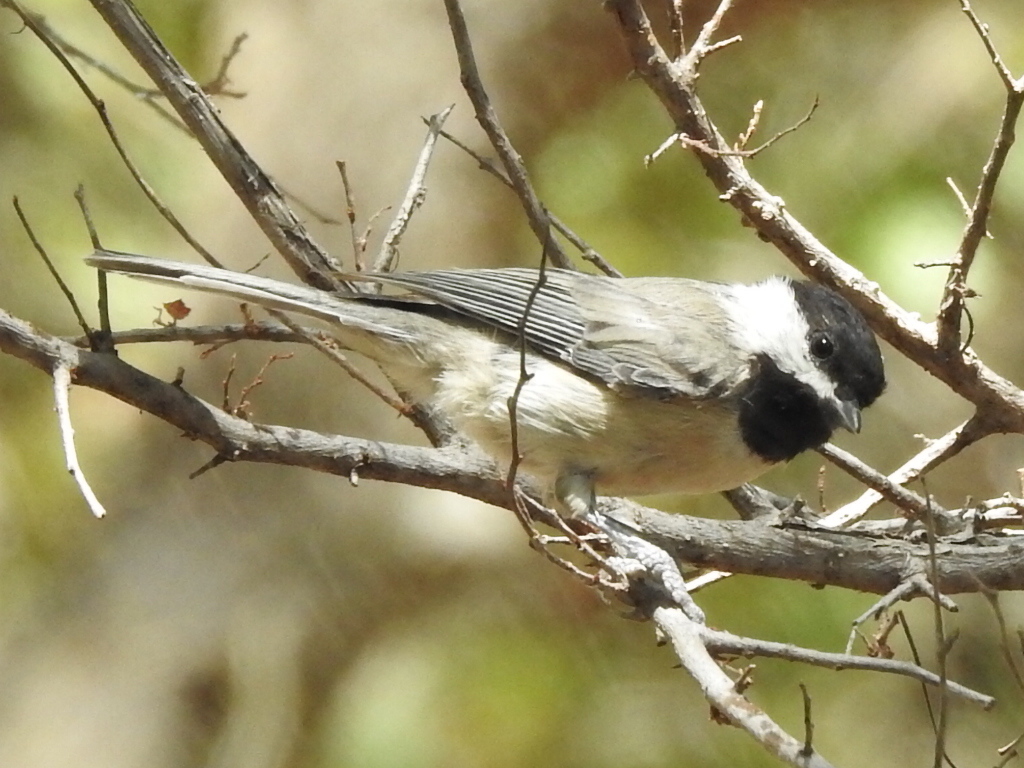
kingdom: Animalia
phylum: Chordata
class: Aves
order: Passeriformes
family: Paridae
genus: Poecile
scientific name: Poecile carolinensis
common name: Carolina chickadee
